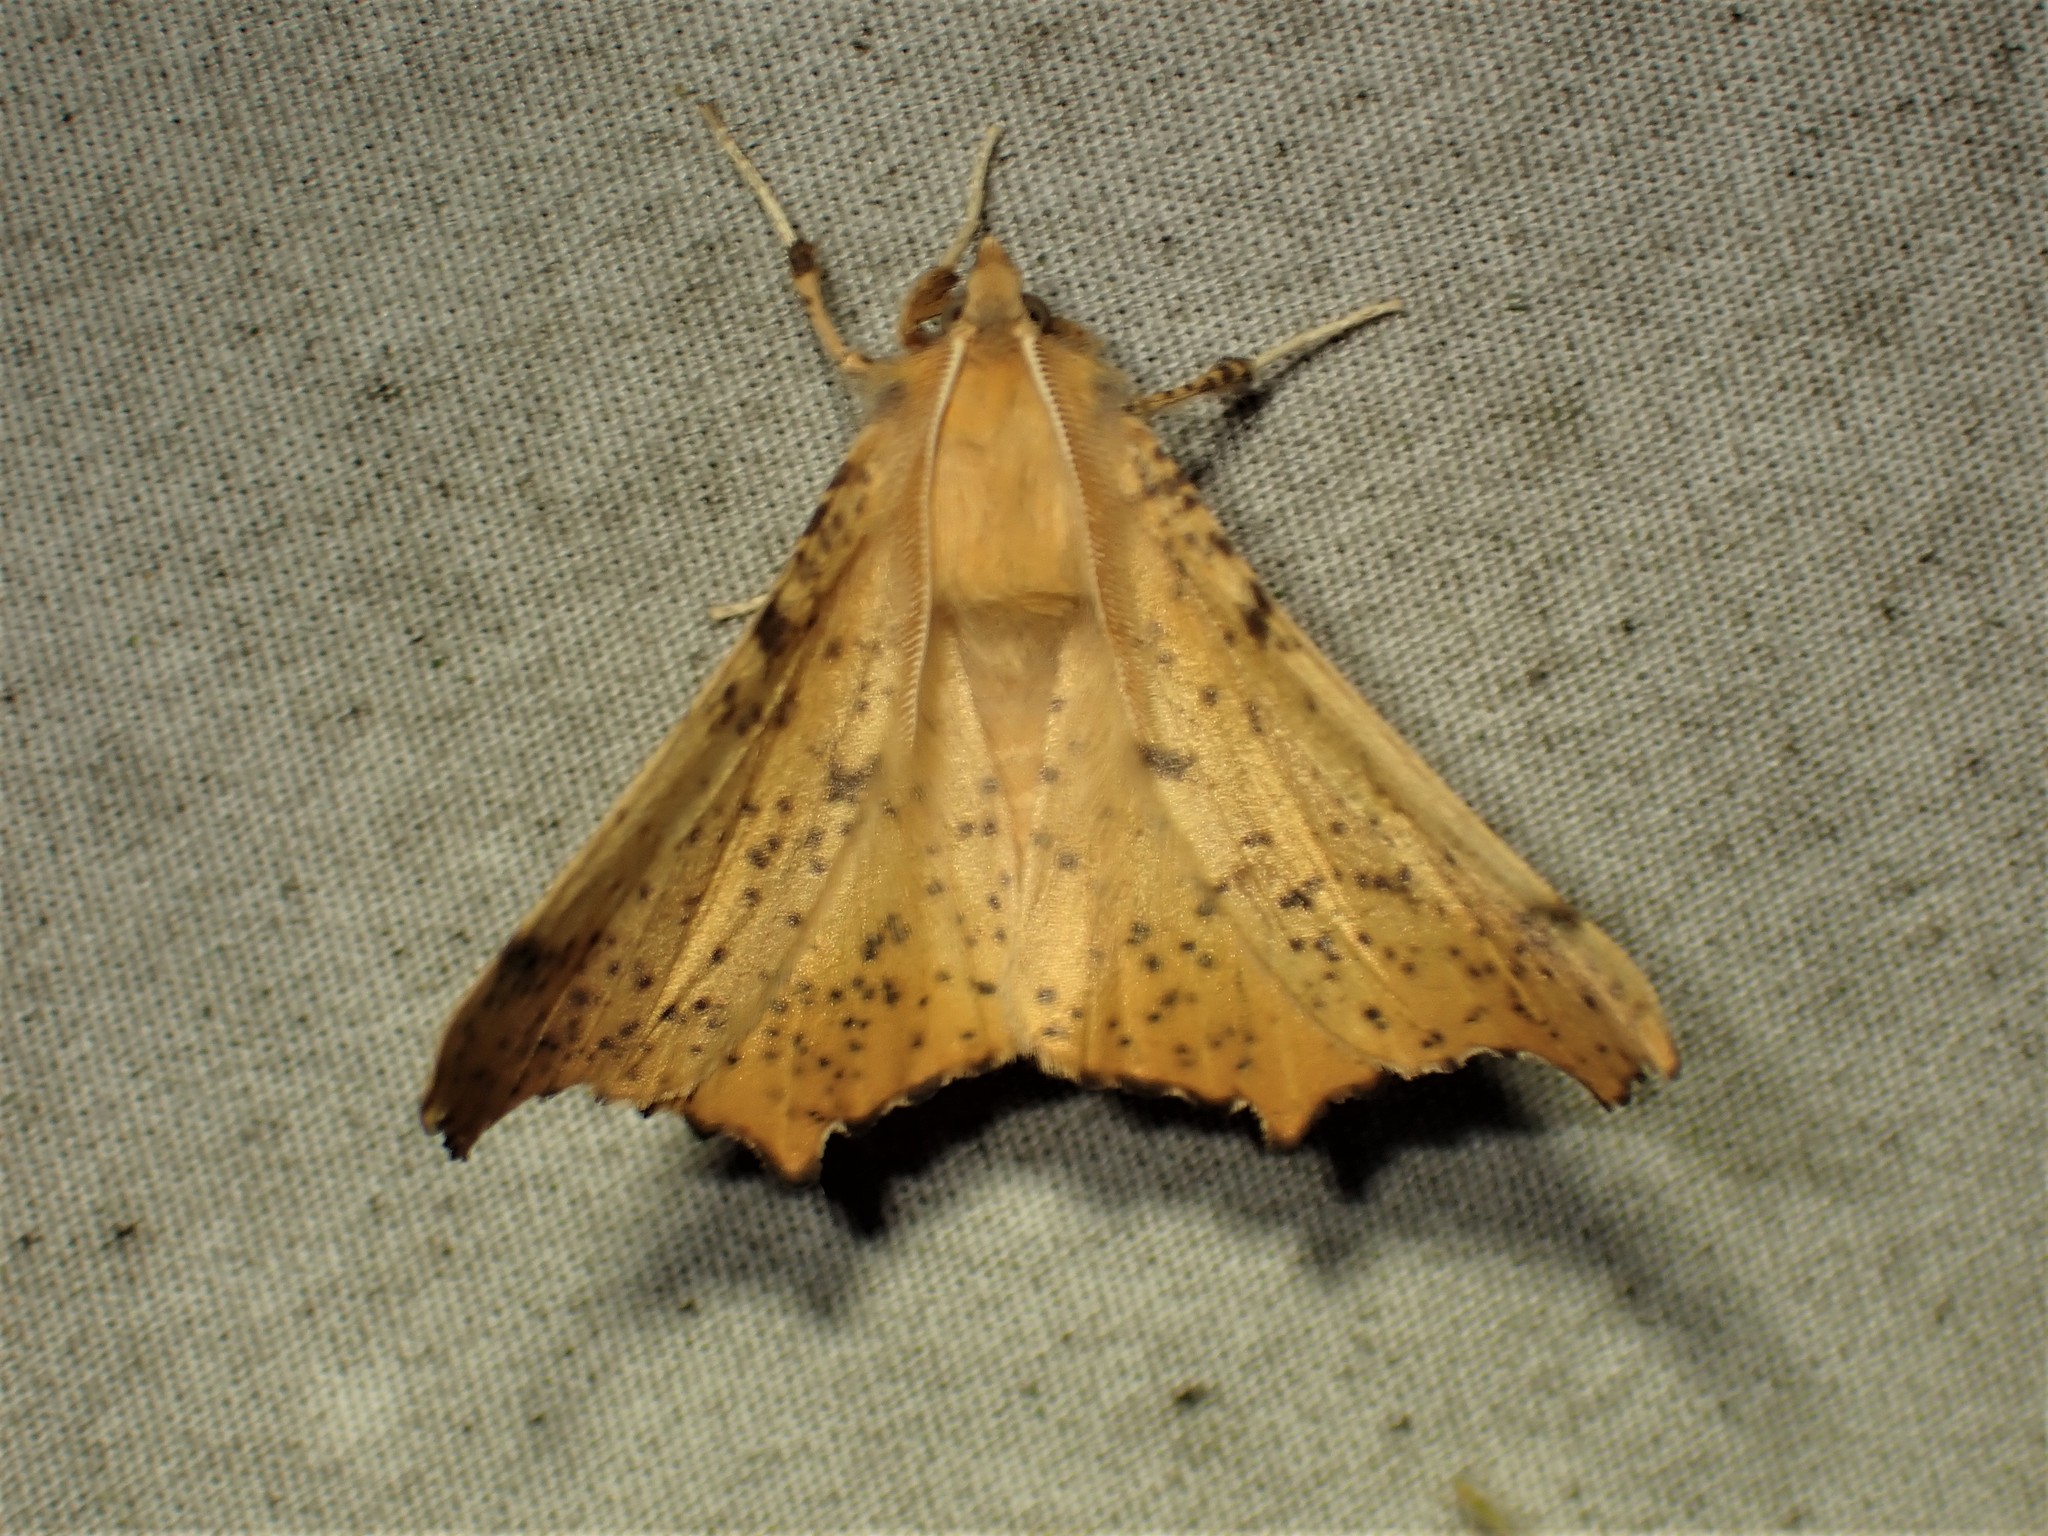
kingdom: Animalia
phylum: Arthropoda
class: Insecta
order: Lepidoptera
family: Geometridae
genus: Ennomos
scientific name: Ennomos magnaria
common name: Maple spanworm
